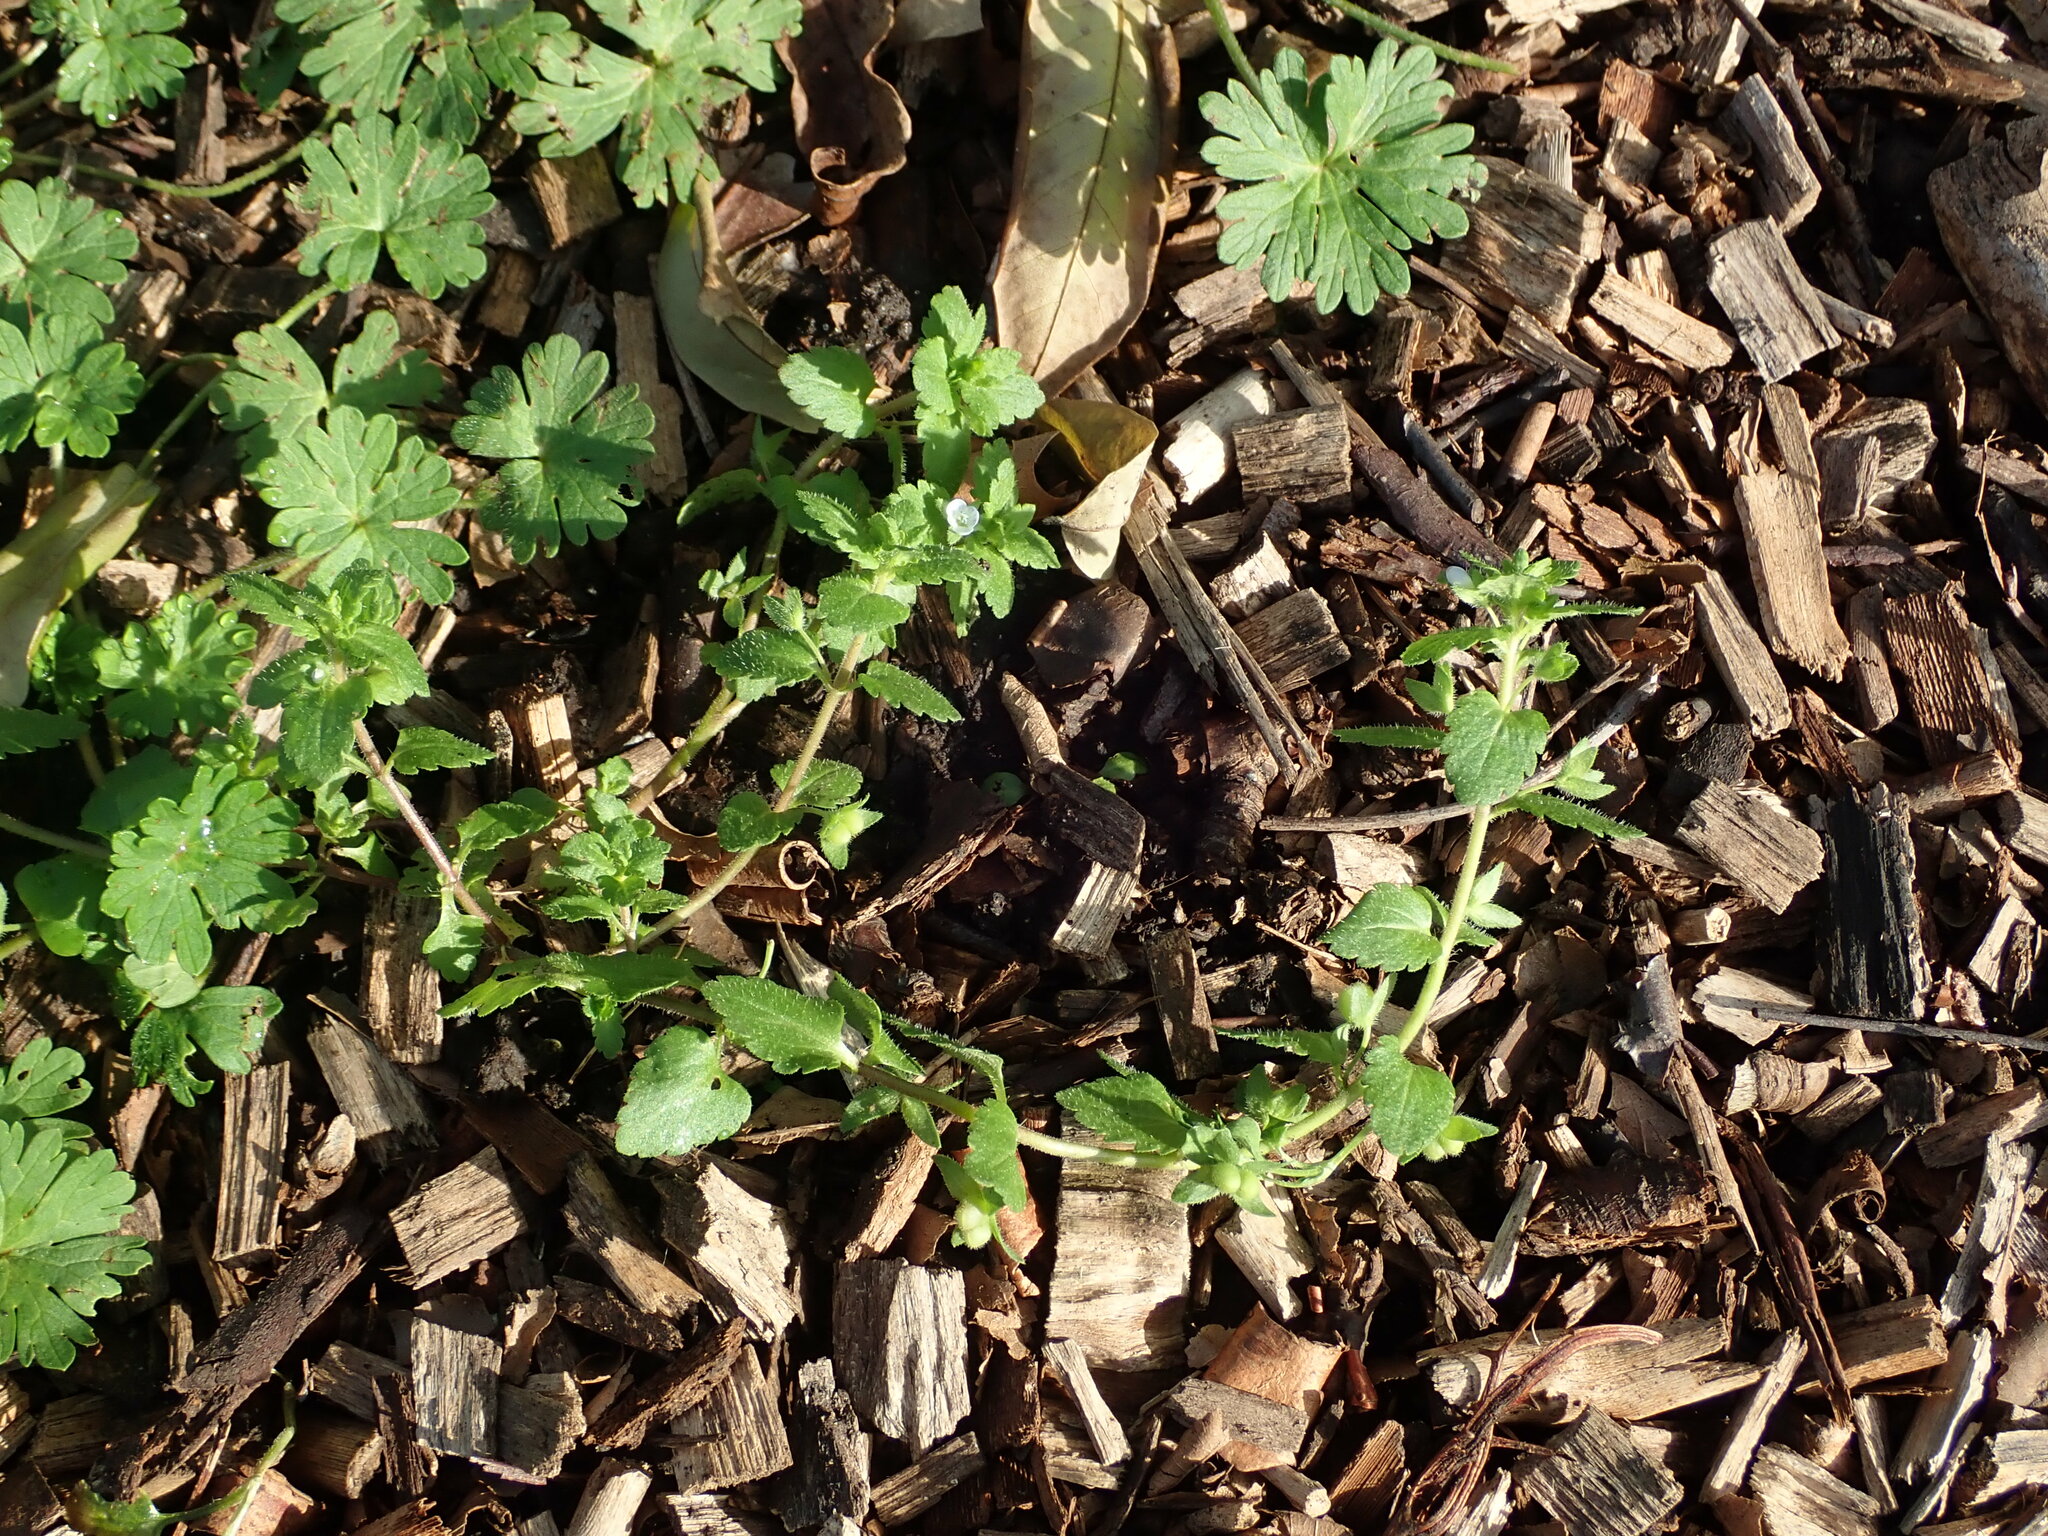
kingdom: Plantae
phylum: Tracheophyta
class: Magnoliopsida
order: Lamiales
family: Plantaginaceae
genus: Veronica
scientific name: Veronica agrestis
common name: Green field-speedwell
